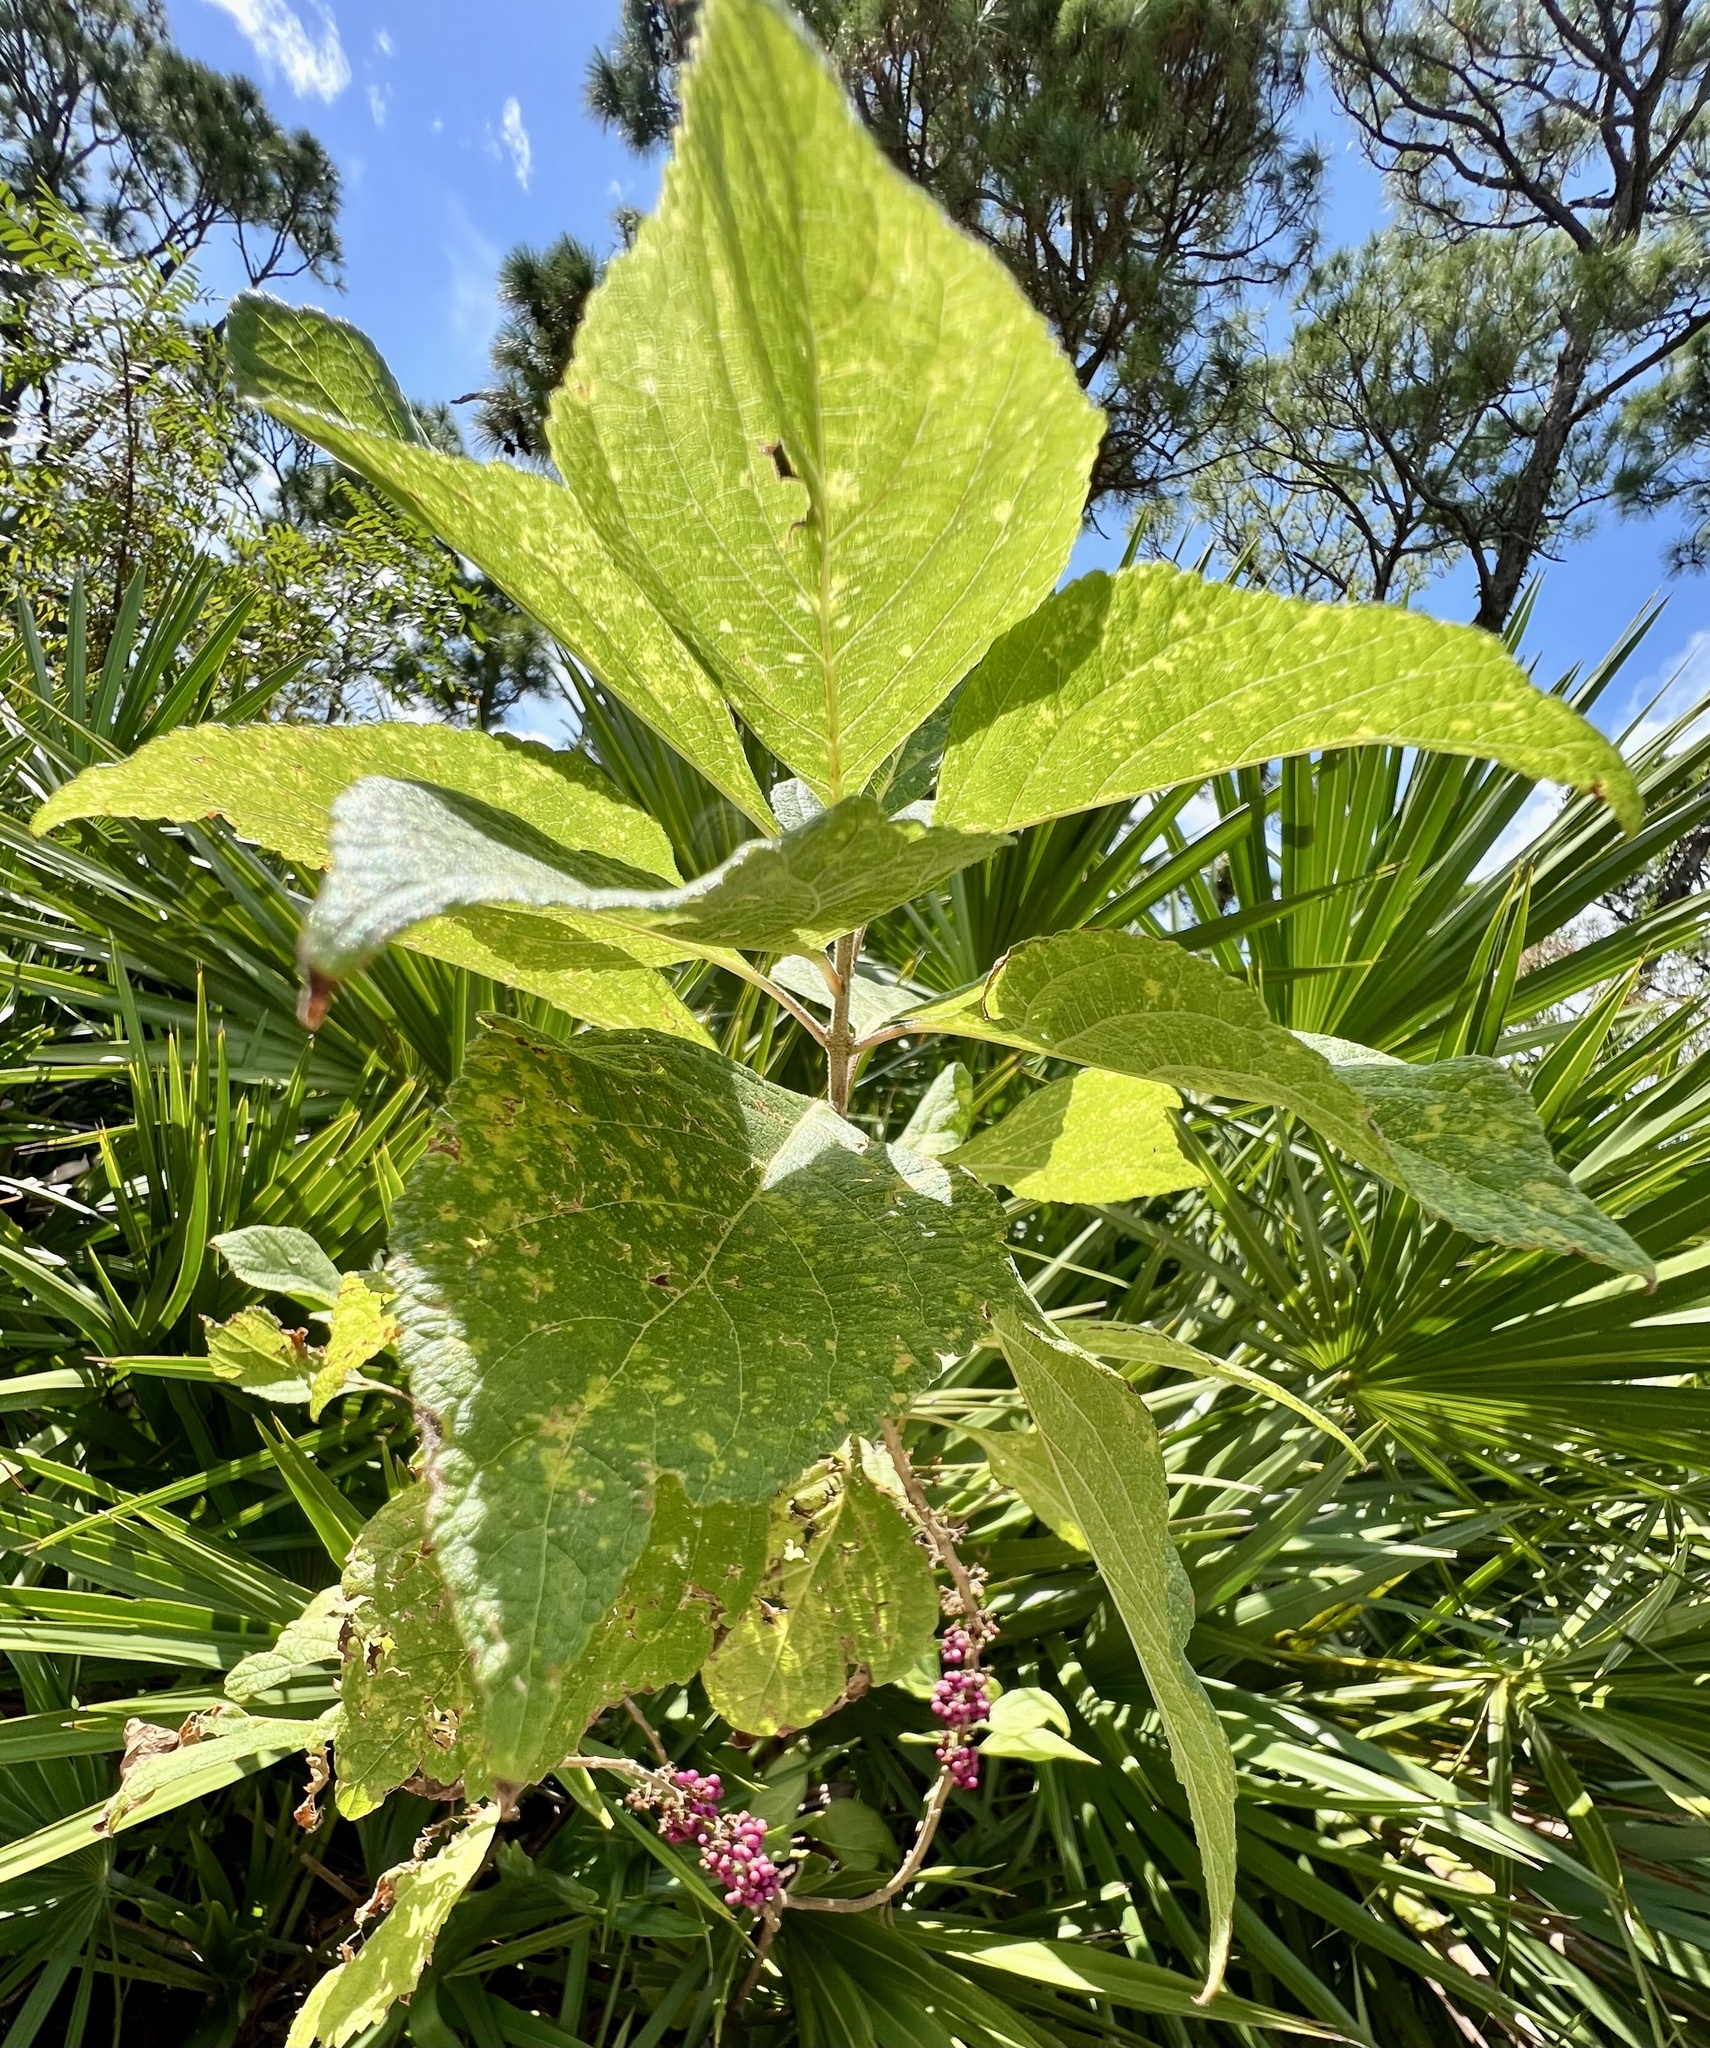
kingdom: Plantae
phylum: Tracheophyta
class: Magnoliopsida
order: Lamiales
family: Lamiaceae
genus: Callicarpa
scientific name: Callicarpa americana
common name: American beautyberry
